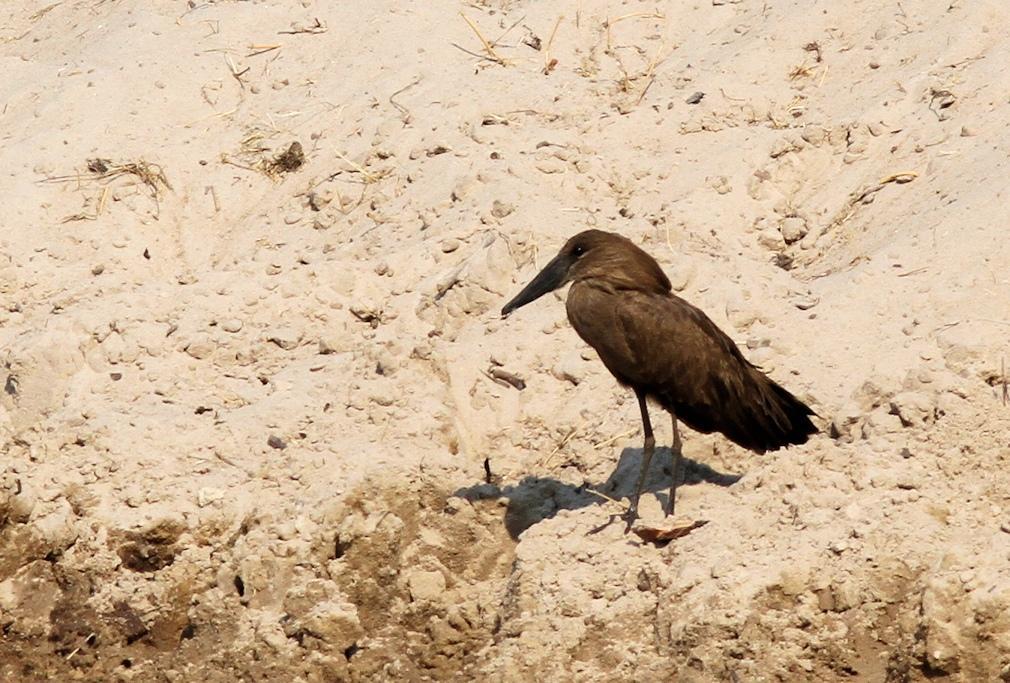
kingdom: Animalia
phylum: Chordata
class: Aves
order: Pelecaniformes
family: Scopidae
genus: Scopus
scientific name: Scopus umbretta
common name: Hamerkop
